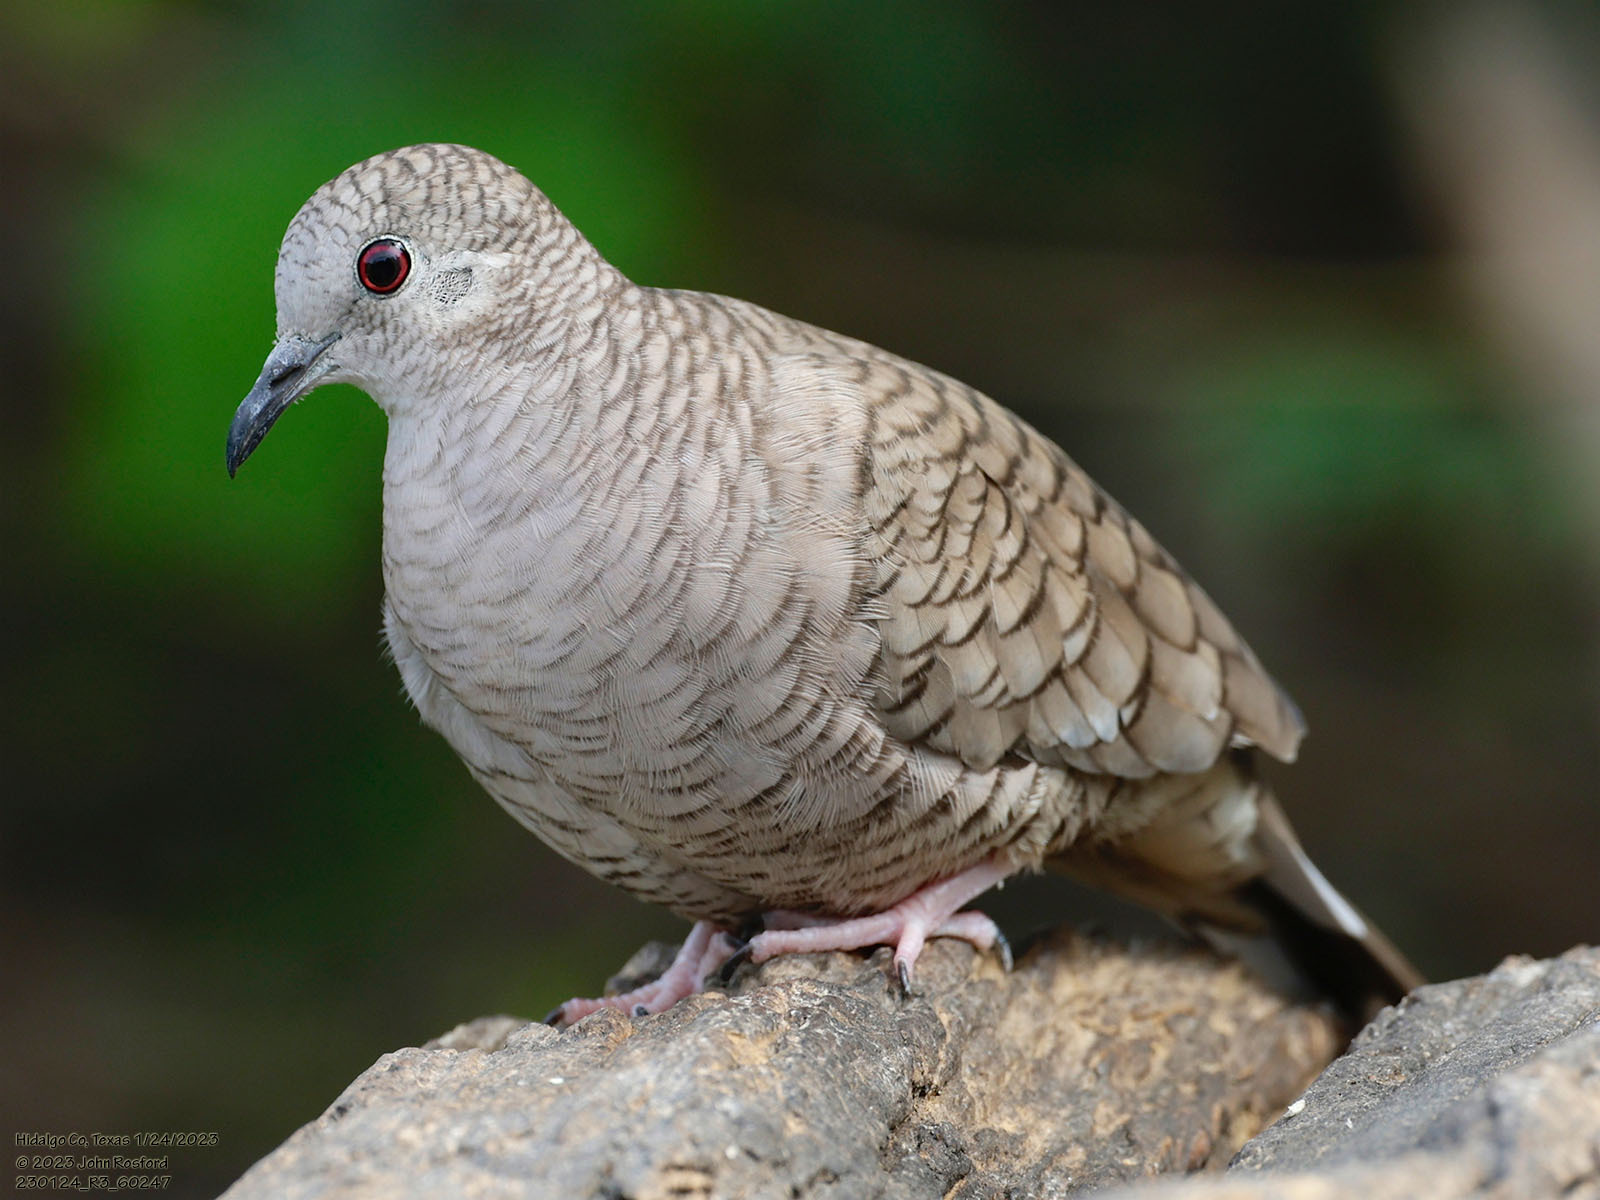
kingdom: Animalia
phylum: Chordata
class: Aves
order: Columbiformes
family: Columbidae
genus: Columbina
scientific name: Columbina inca
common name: Inca dove
